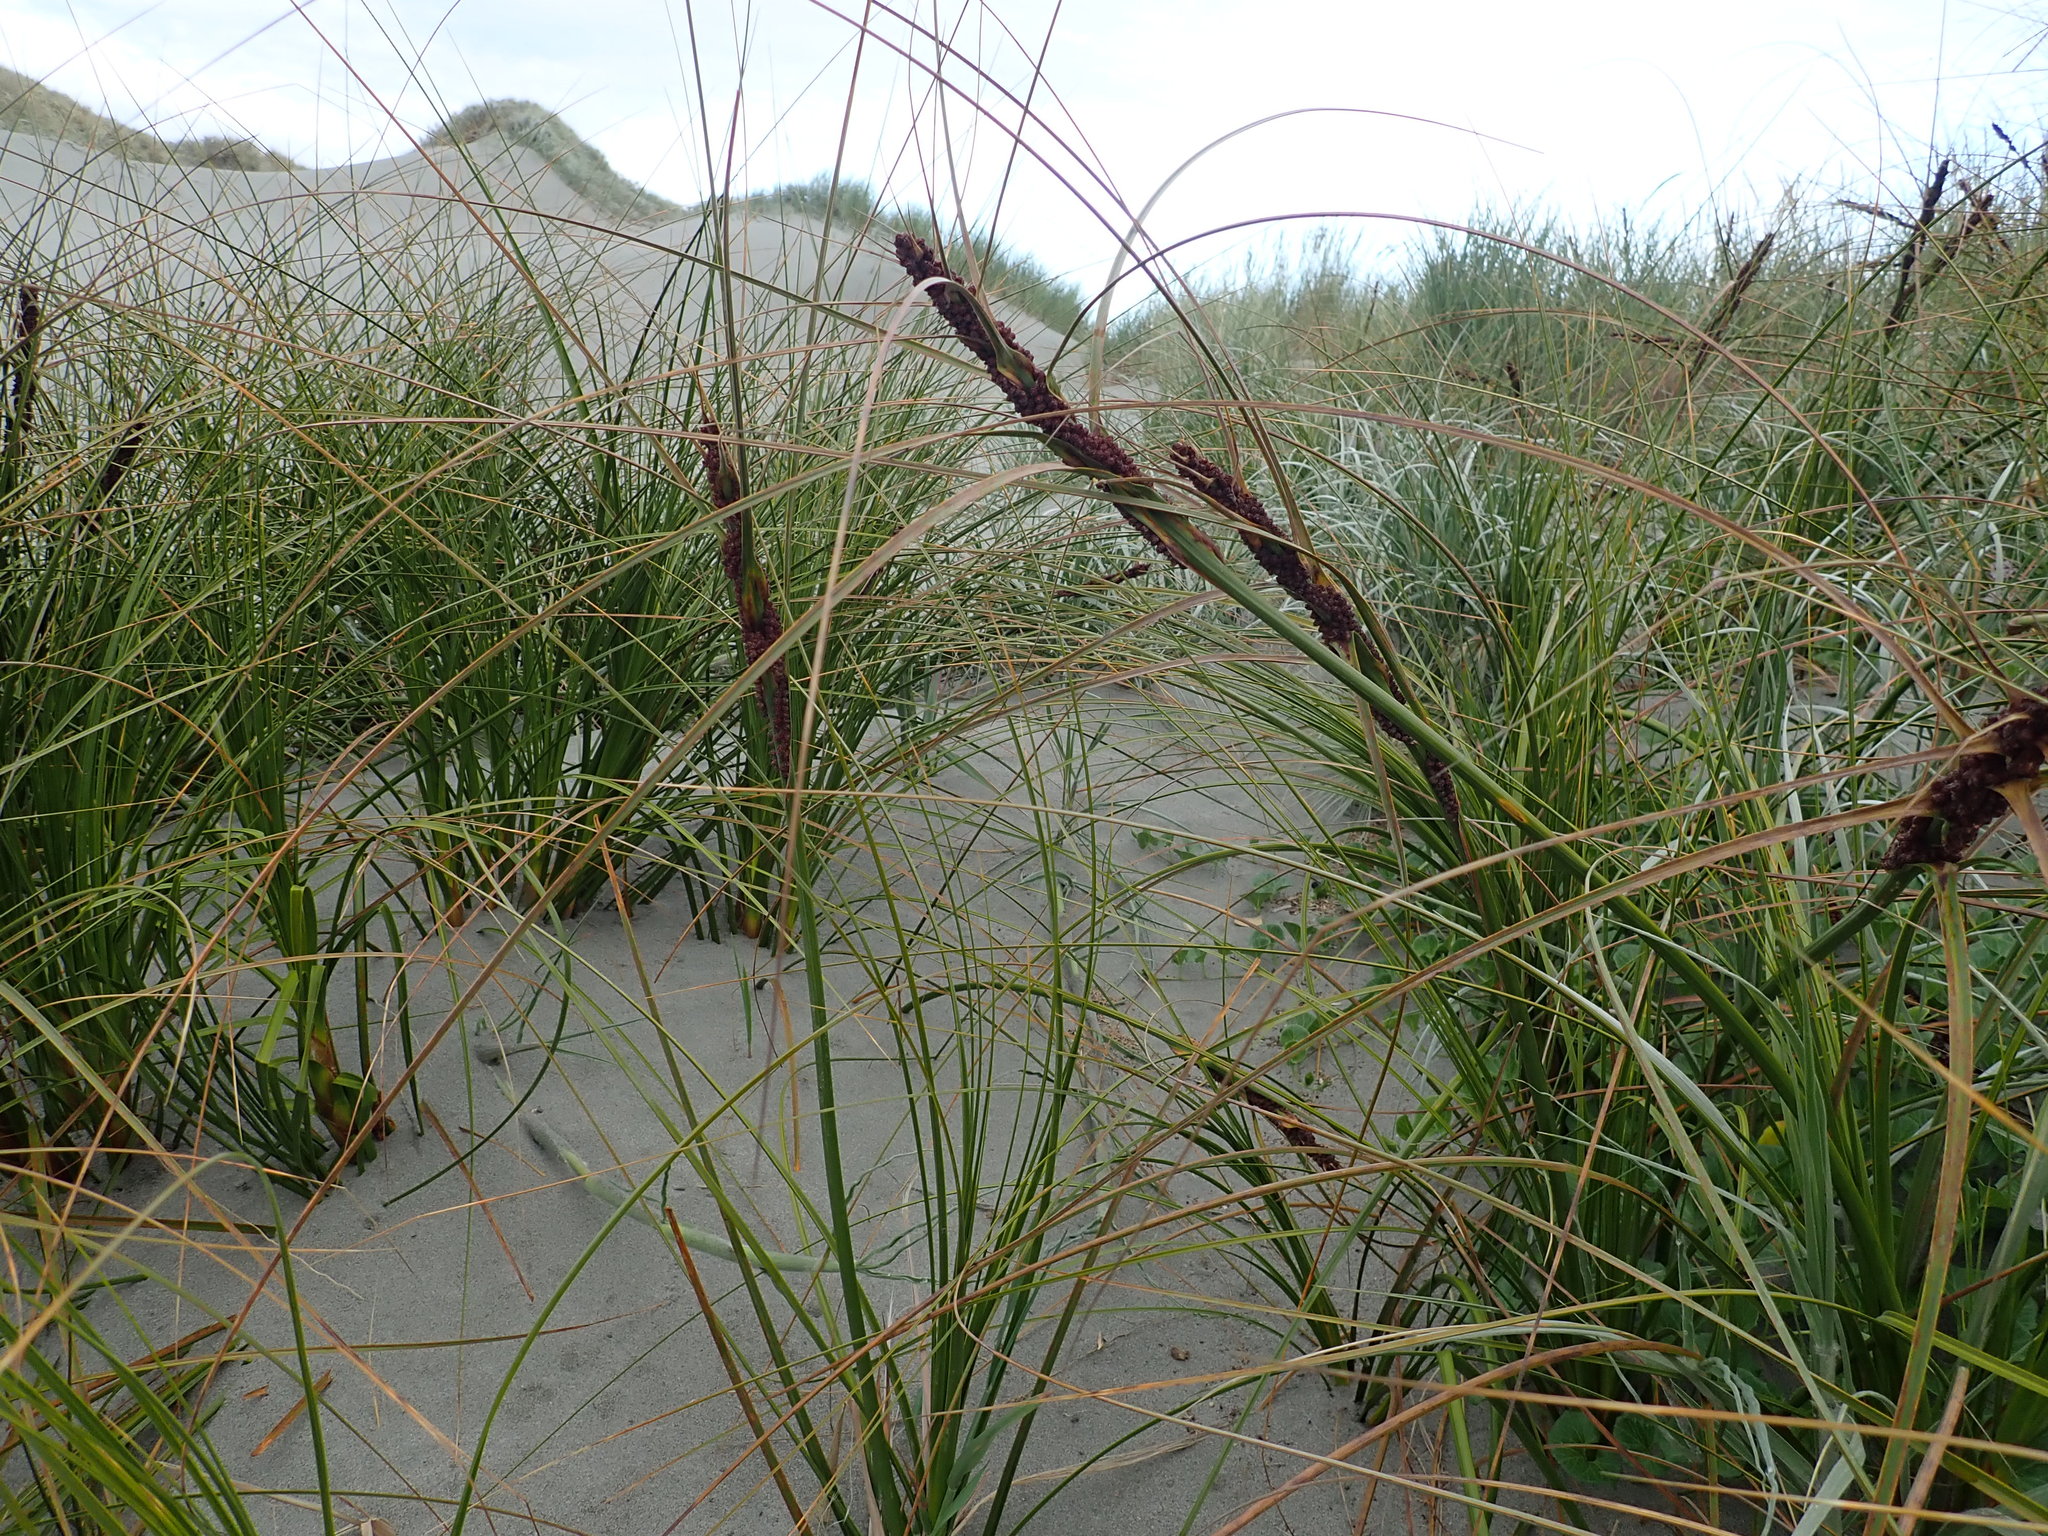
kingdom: Plantae
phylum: Tracheophyta
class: Liliopsida
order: Poales
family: Cyperaceae
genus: Ficinia
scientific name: Ficinia spiralis
